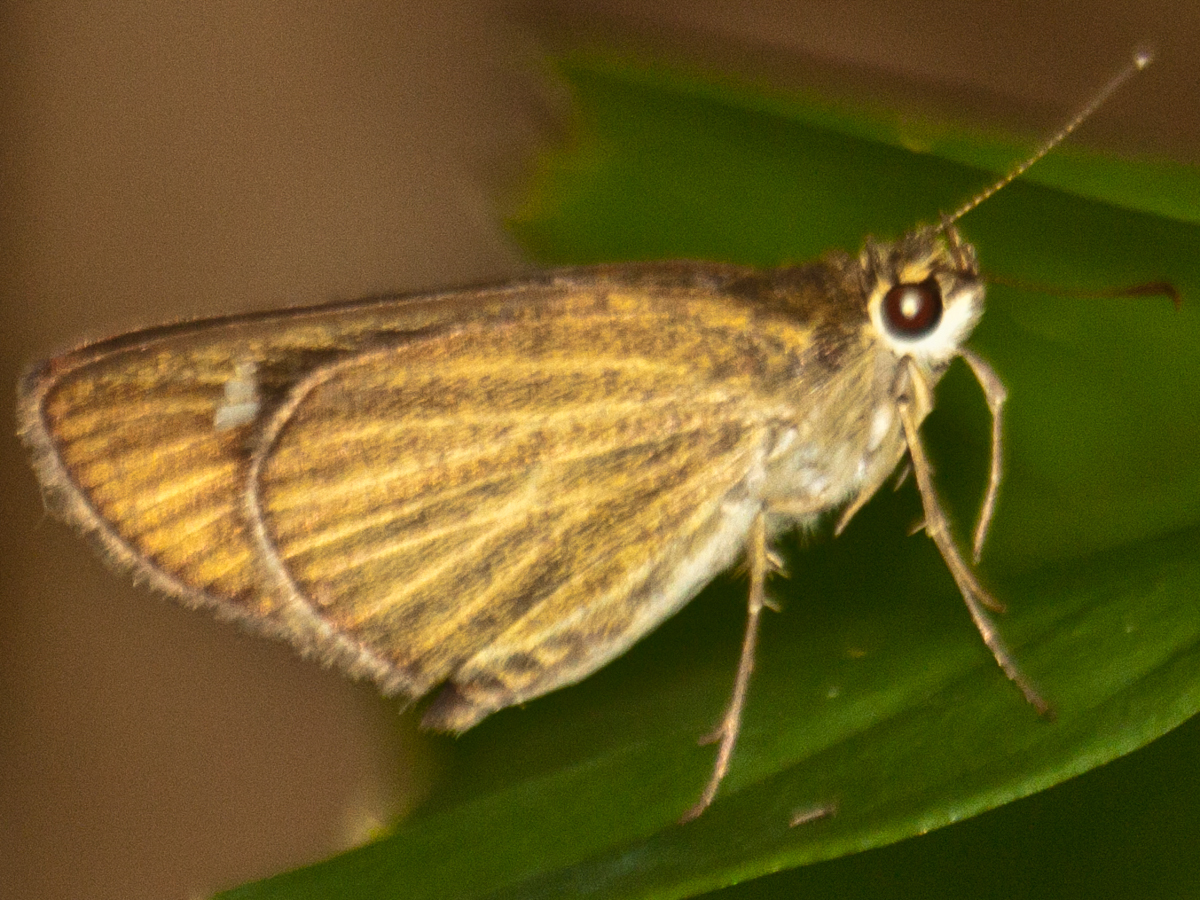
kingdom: Animalia
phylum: Arthropoda
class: Insecta
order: Lepidoptera
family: Hesperiidae
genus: Suada
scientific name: Suada swerga
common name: Grass bob
